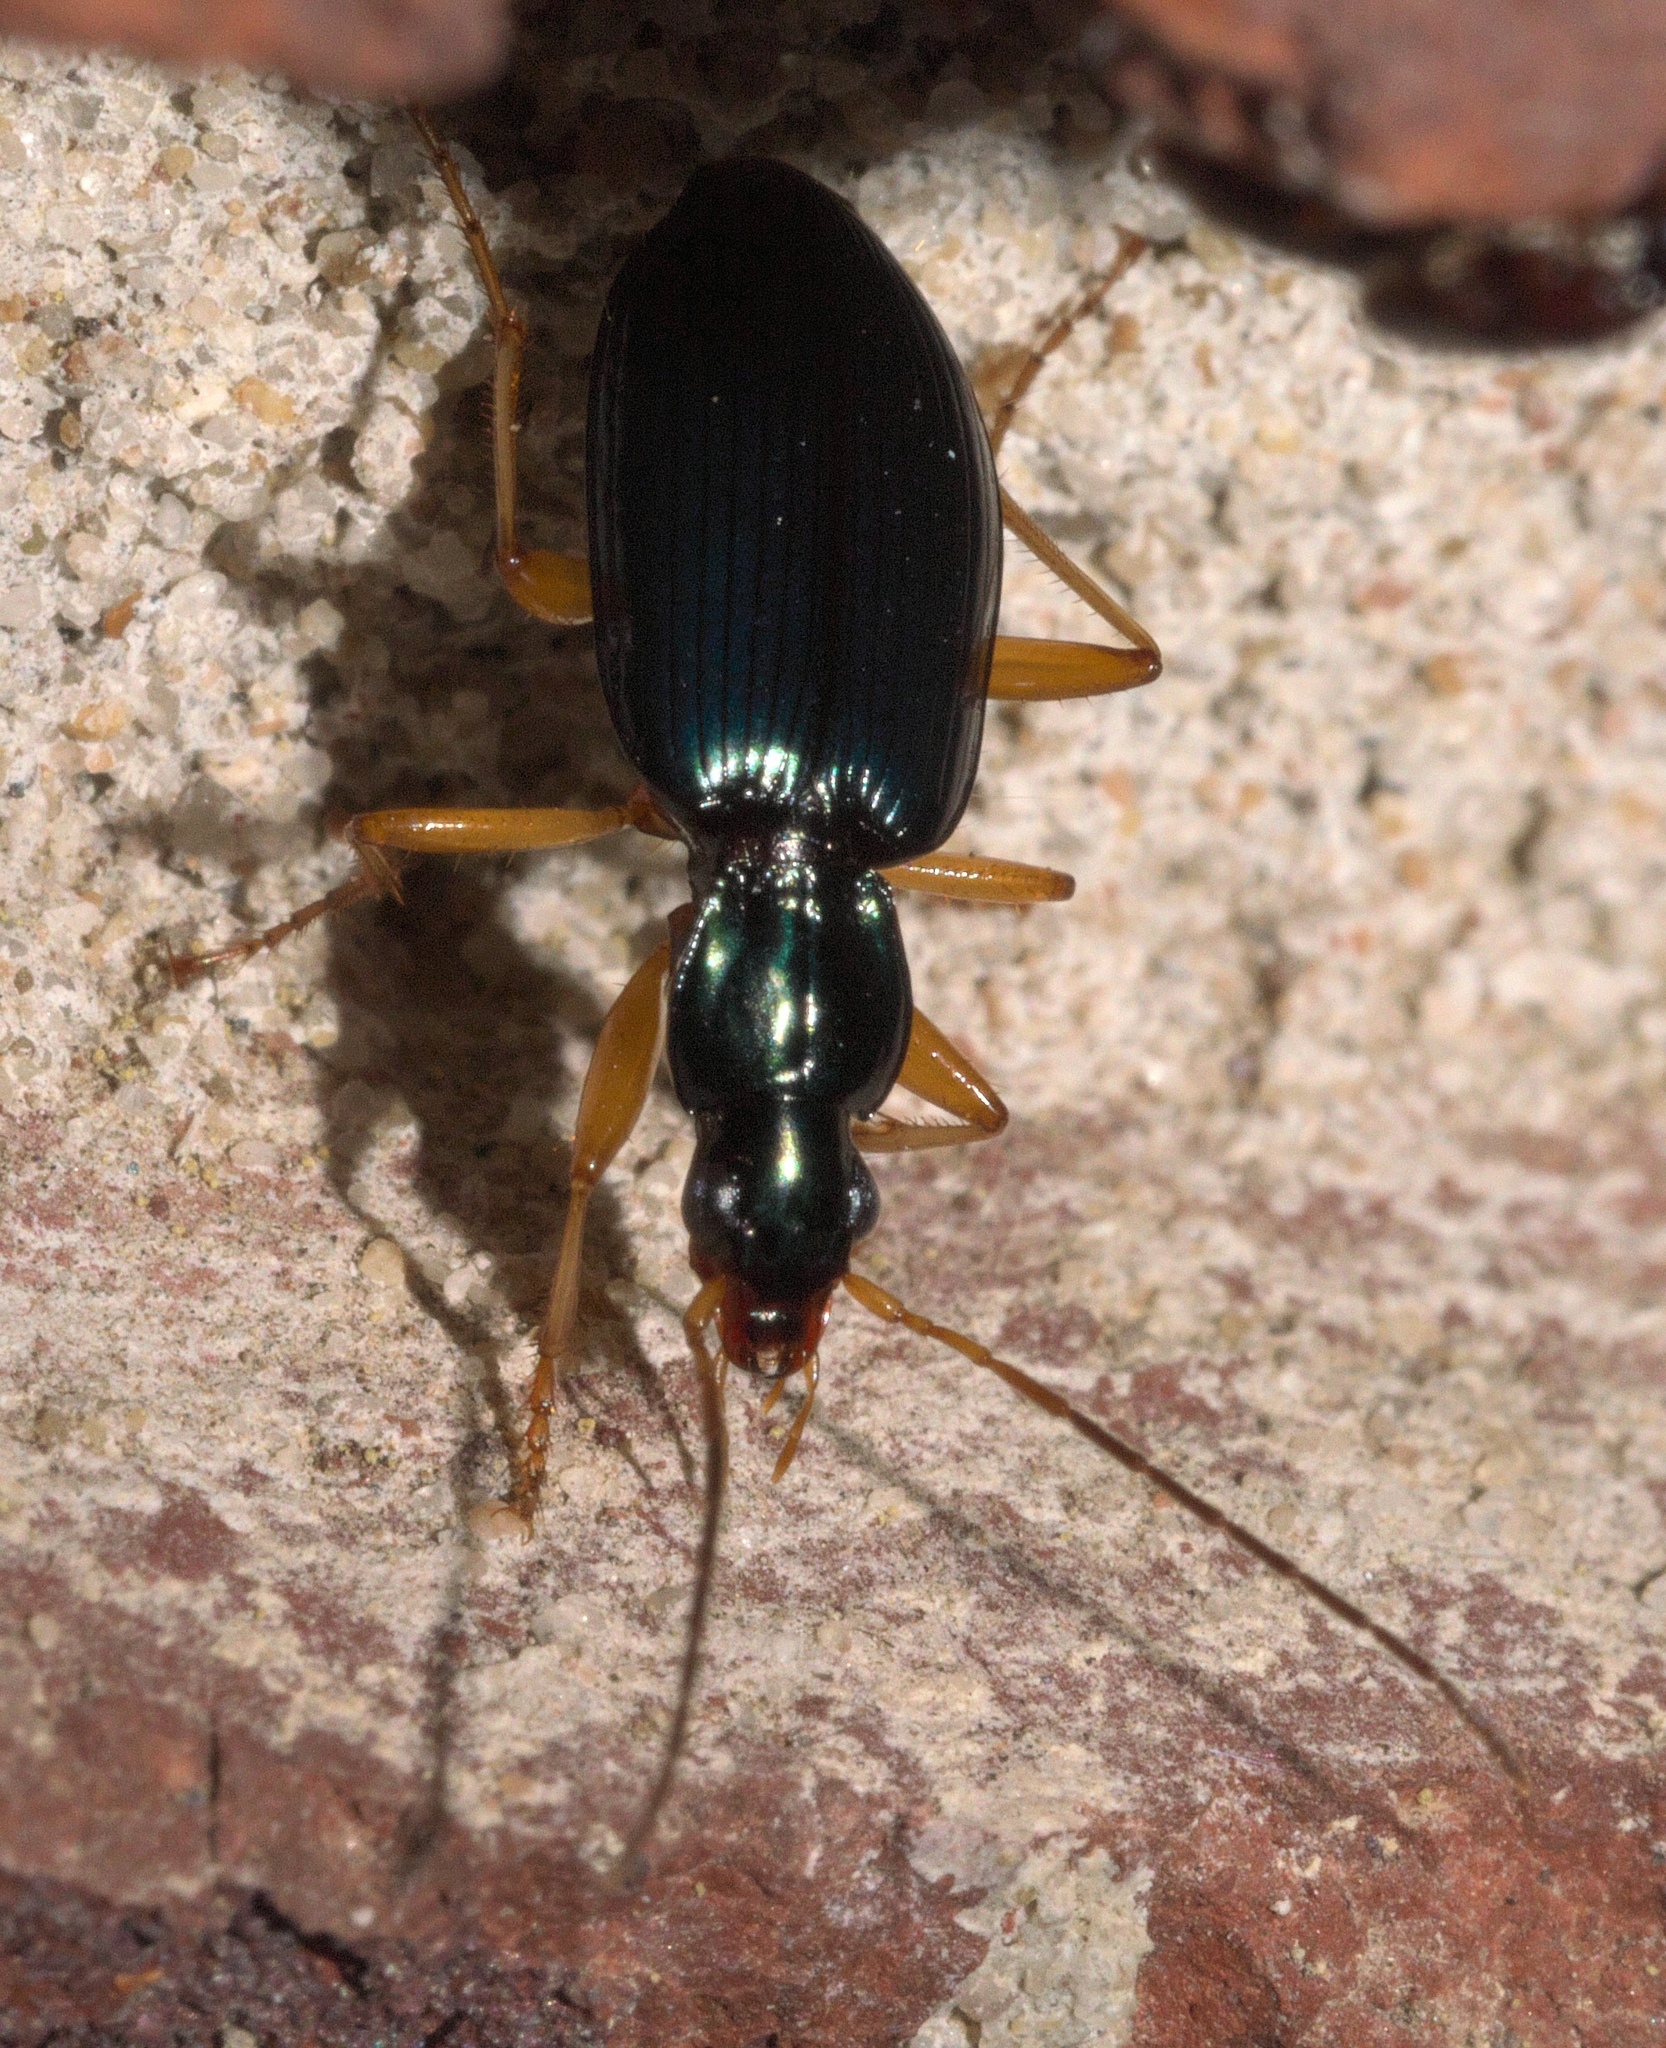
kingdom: Animalia
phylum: Arthropoda
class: Insecta
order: Coleoptera
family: Carabidae
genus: Agonum
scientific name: Agonum extensicolle
